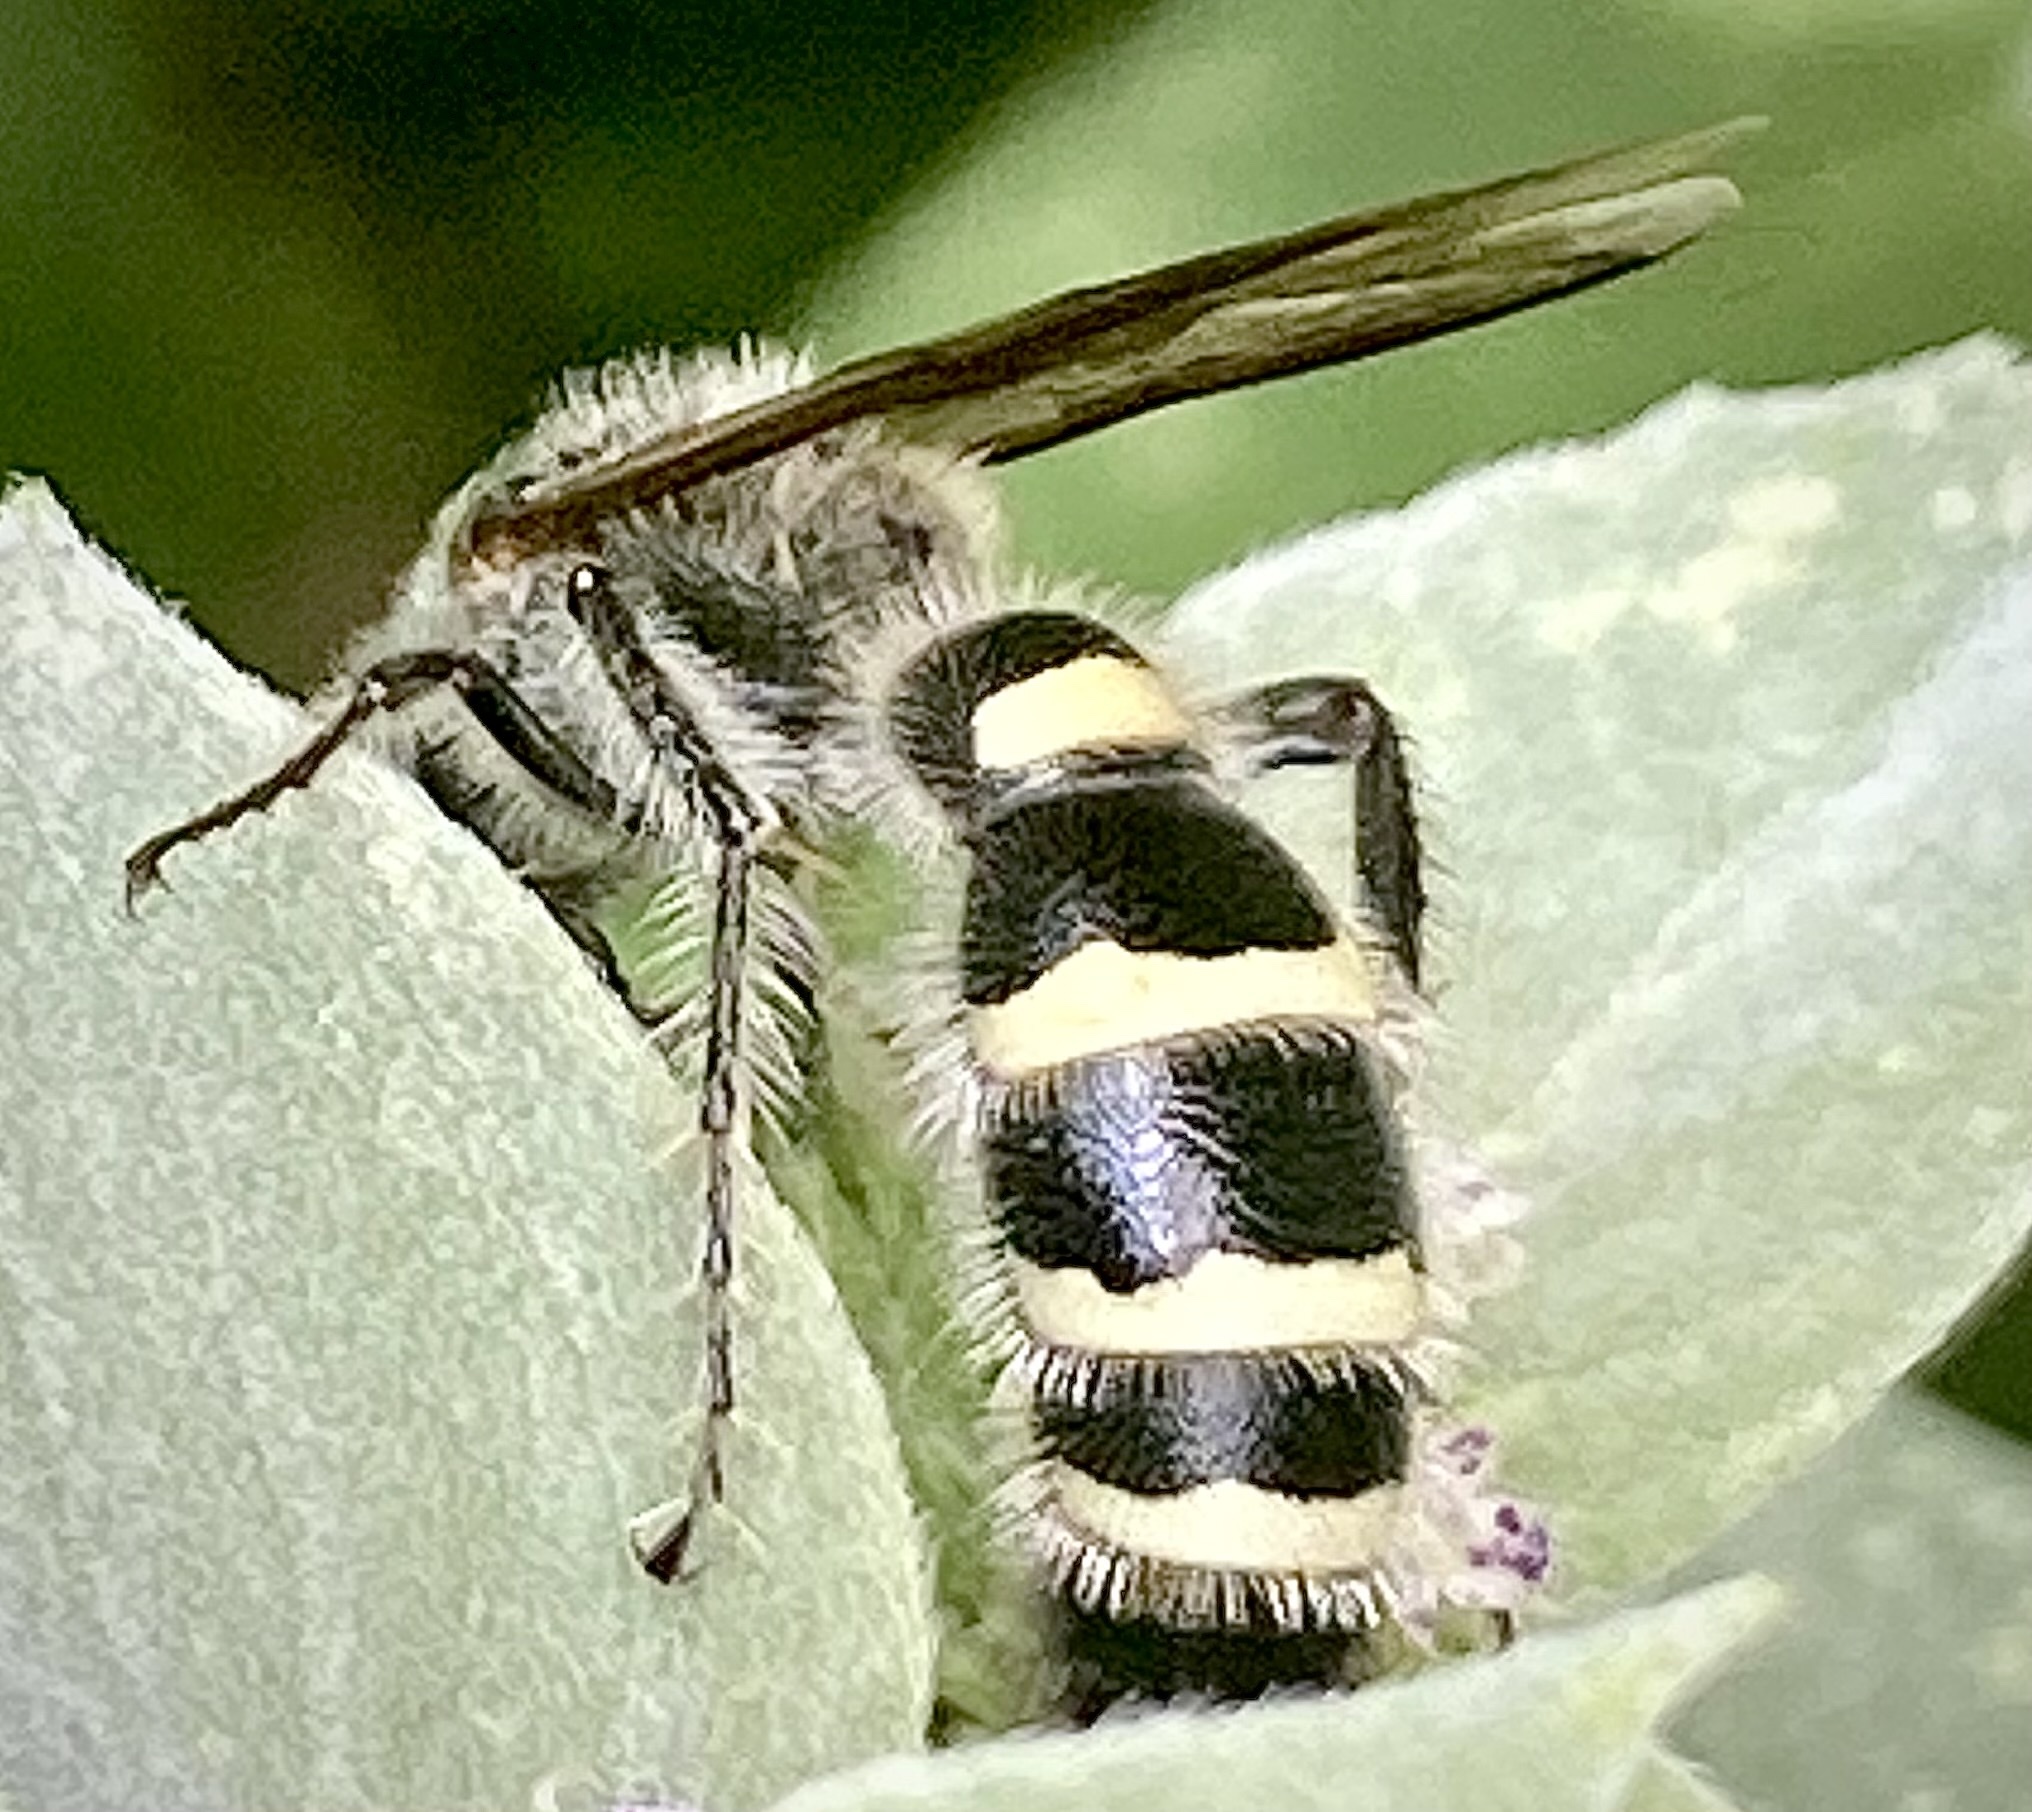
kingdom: Animalia
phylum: Arthropoda
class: Insecta
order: Hymenoptera
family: Scoliidae
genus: Dielis
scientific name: Dielis
